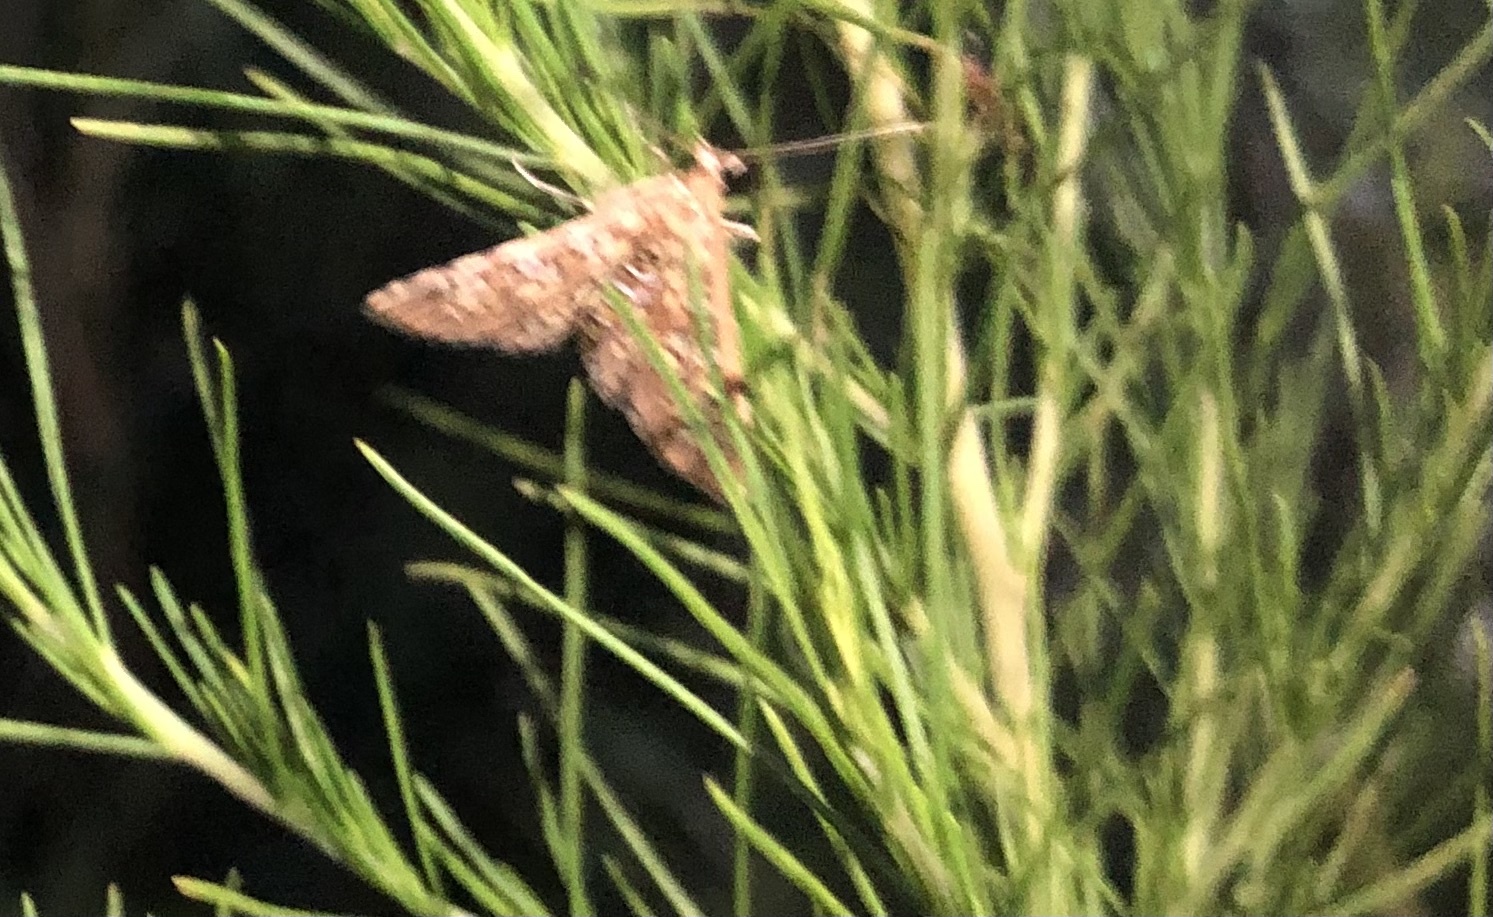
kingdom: Animalia
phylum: Arthropoda
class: Insecta
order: Lepidoptera
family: Crambidae
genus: Samea
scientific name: Samea ecclesialis
